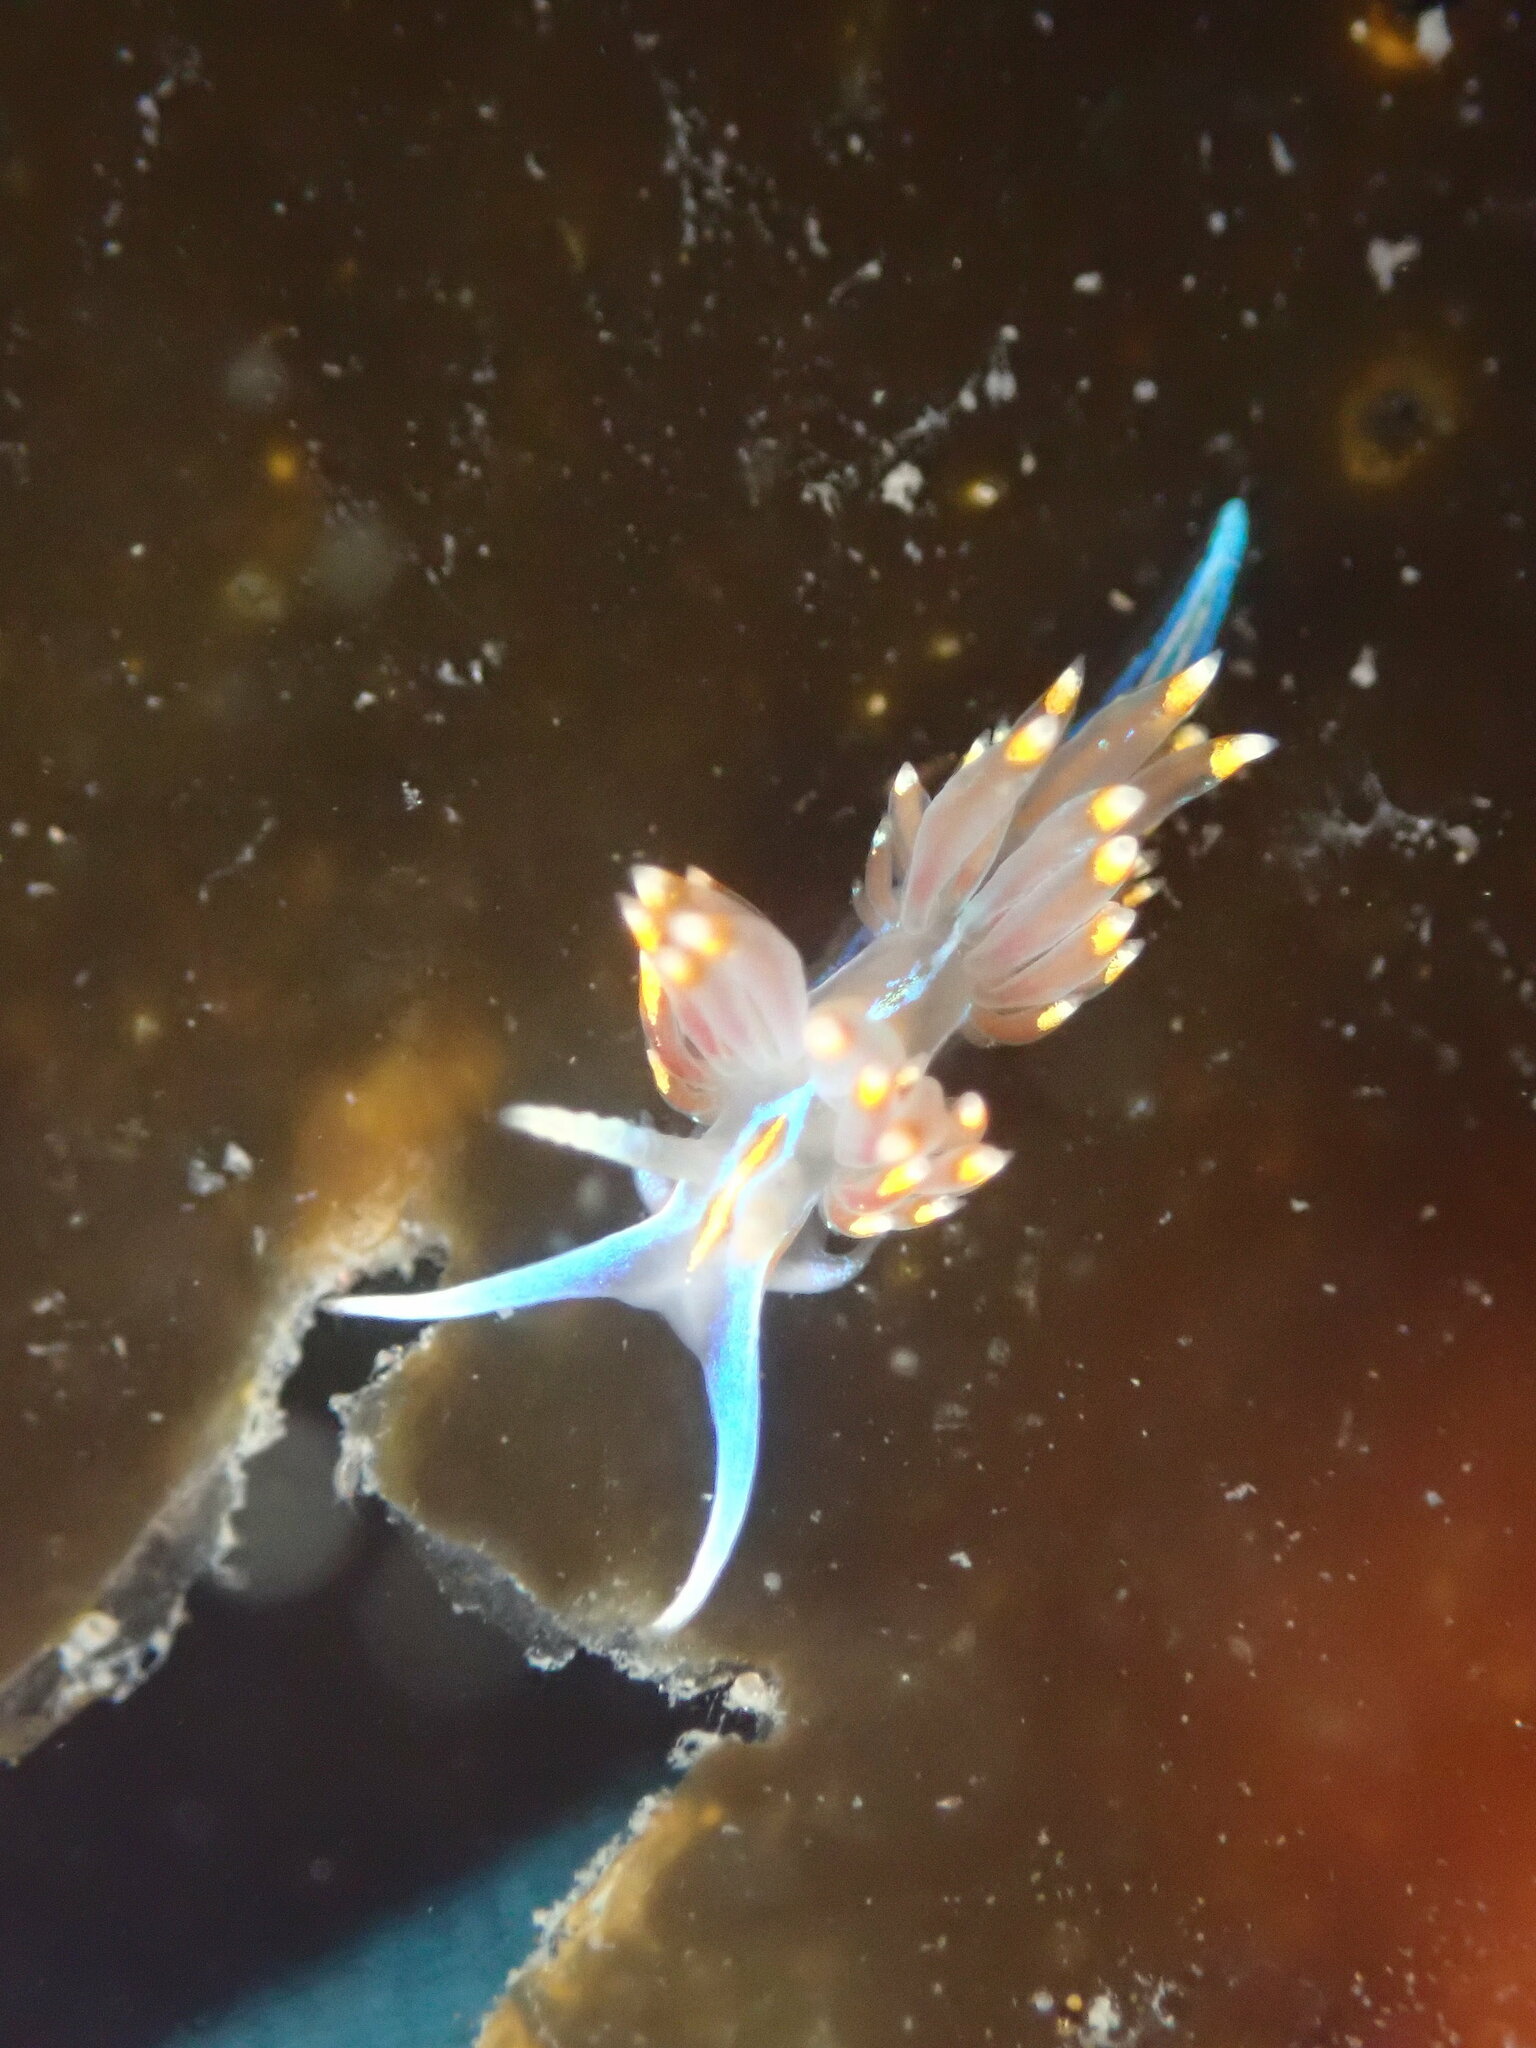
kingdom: Animalia
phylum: Mollusca
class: Gastropoda
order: Nudibranchia
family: Myrrhinidae
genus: Hermissenda
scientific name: Hermissenda opalescens
